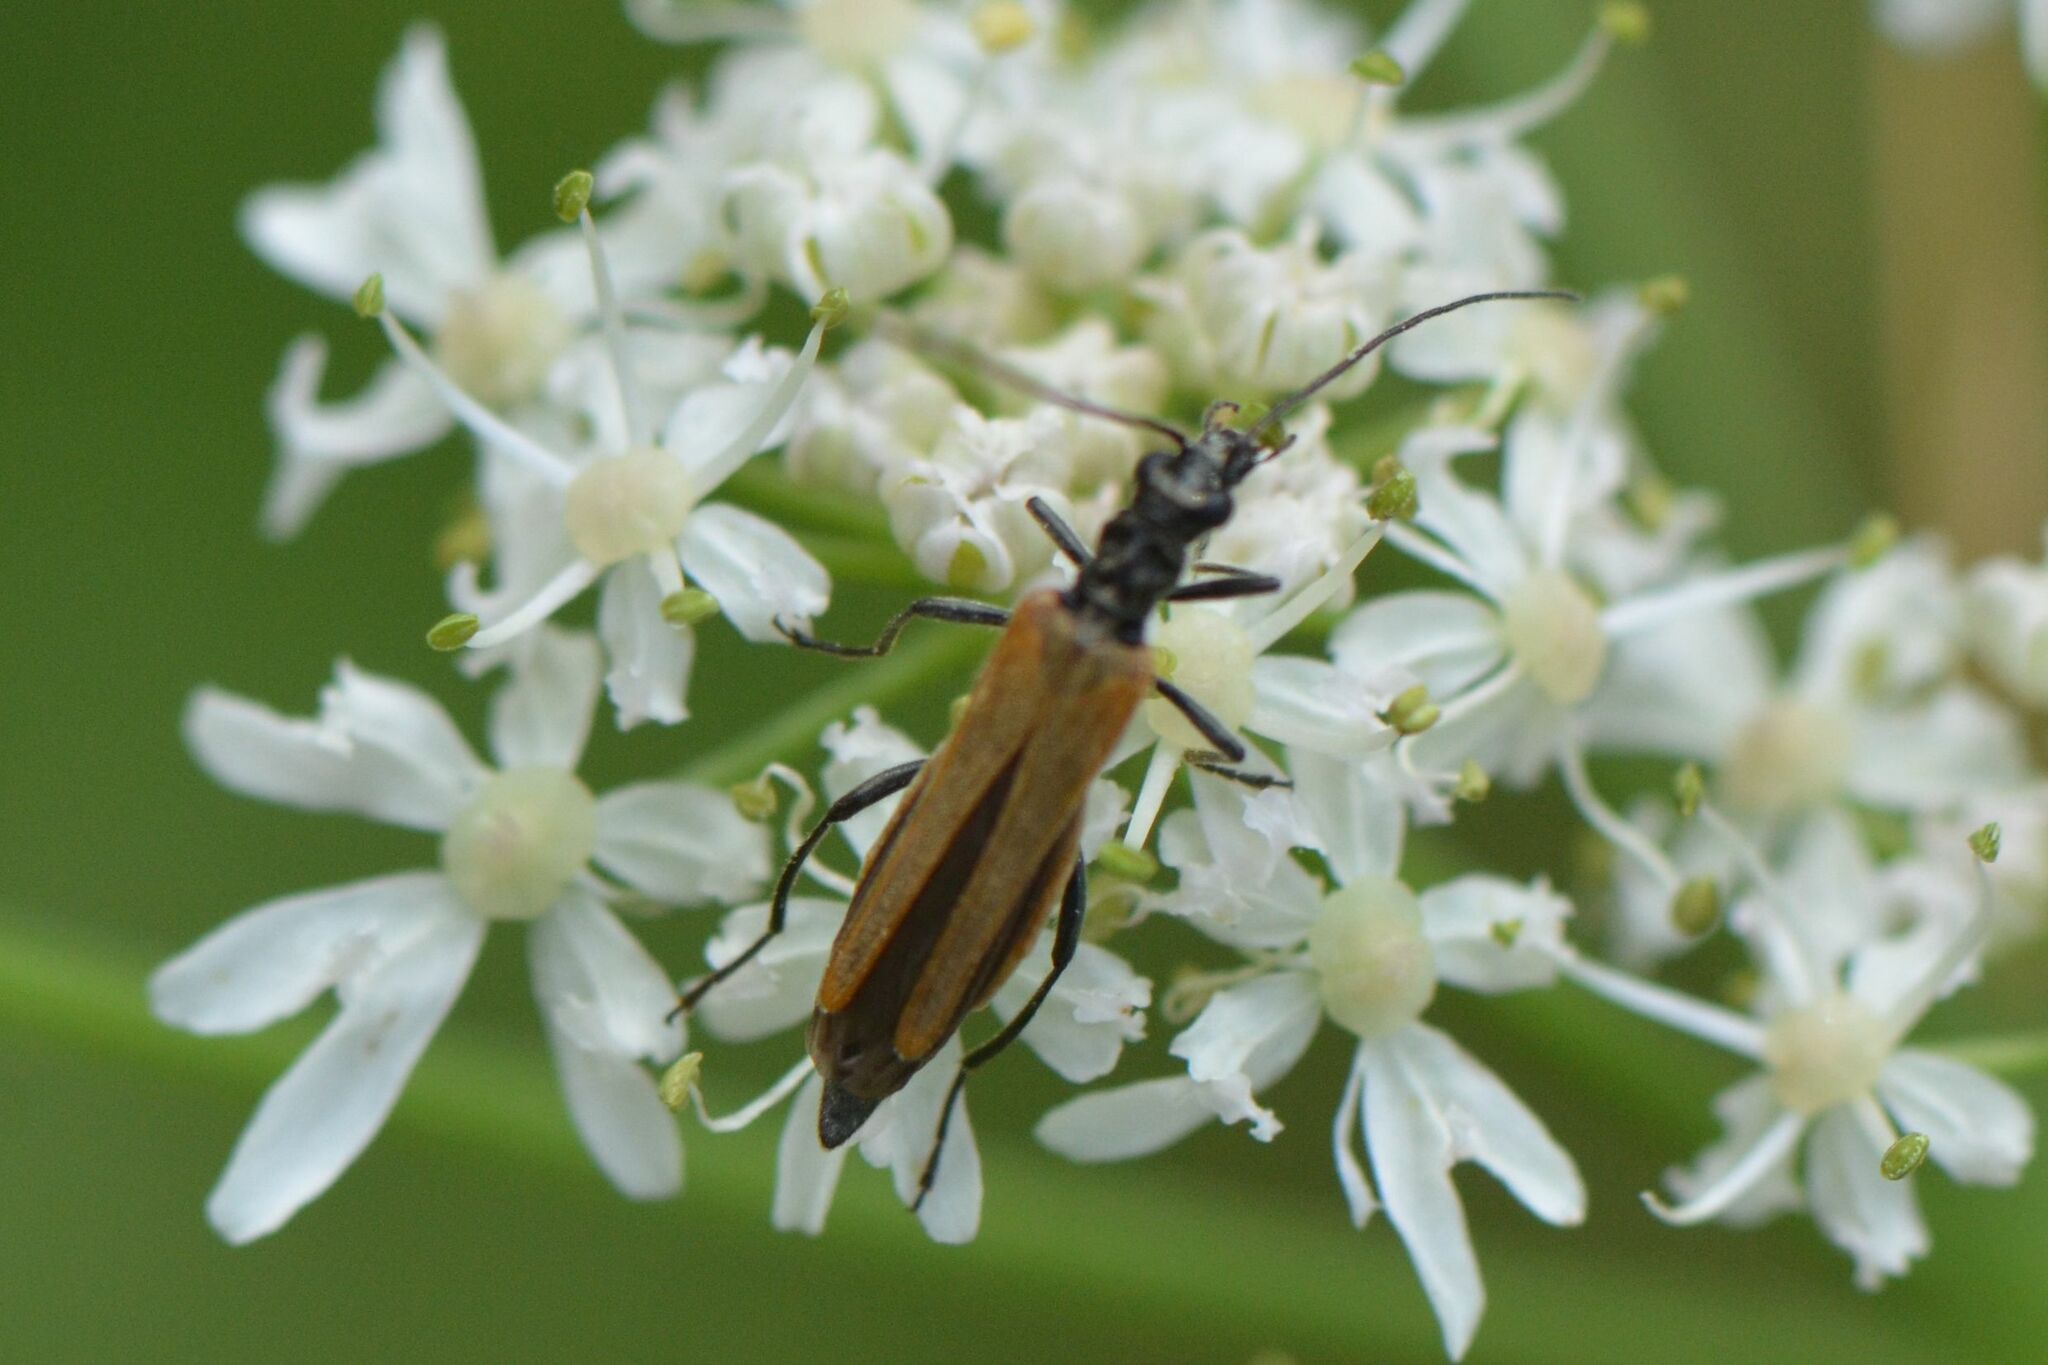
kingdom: Animalia
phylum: Arthropoda
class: Insecta
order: Coleoptera
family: Oedemeridae
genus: Oedemera
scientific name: Oedemera femorata
